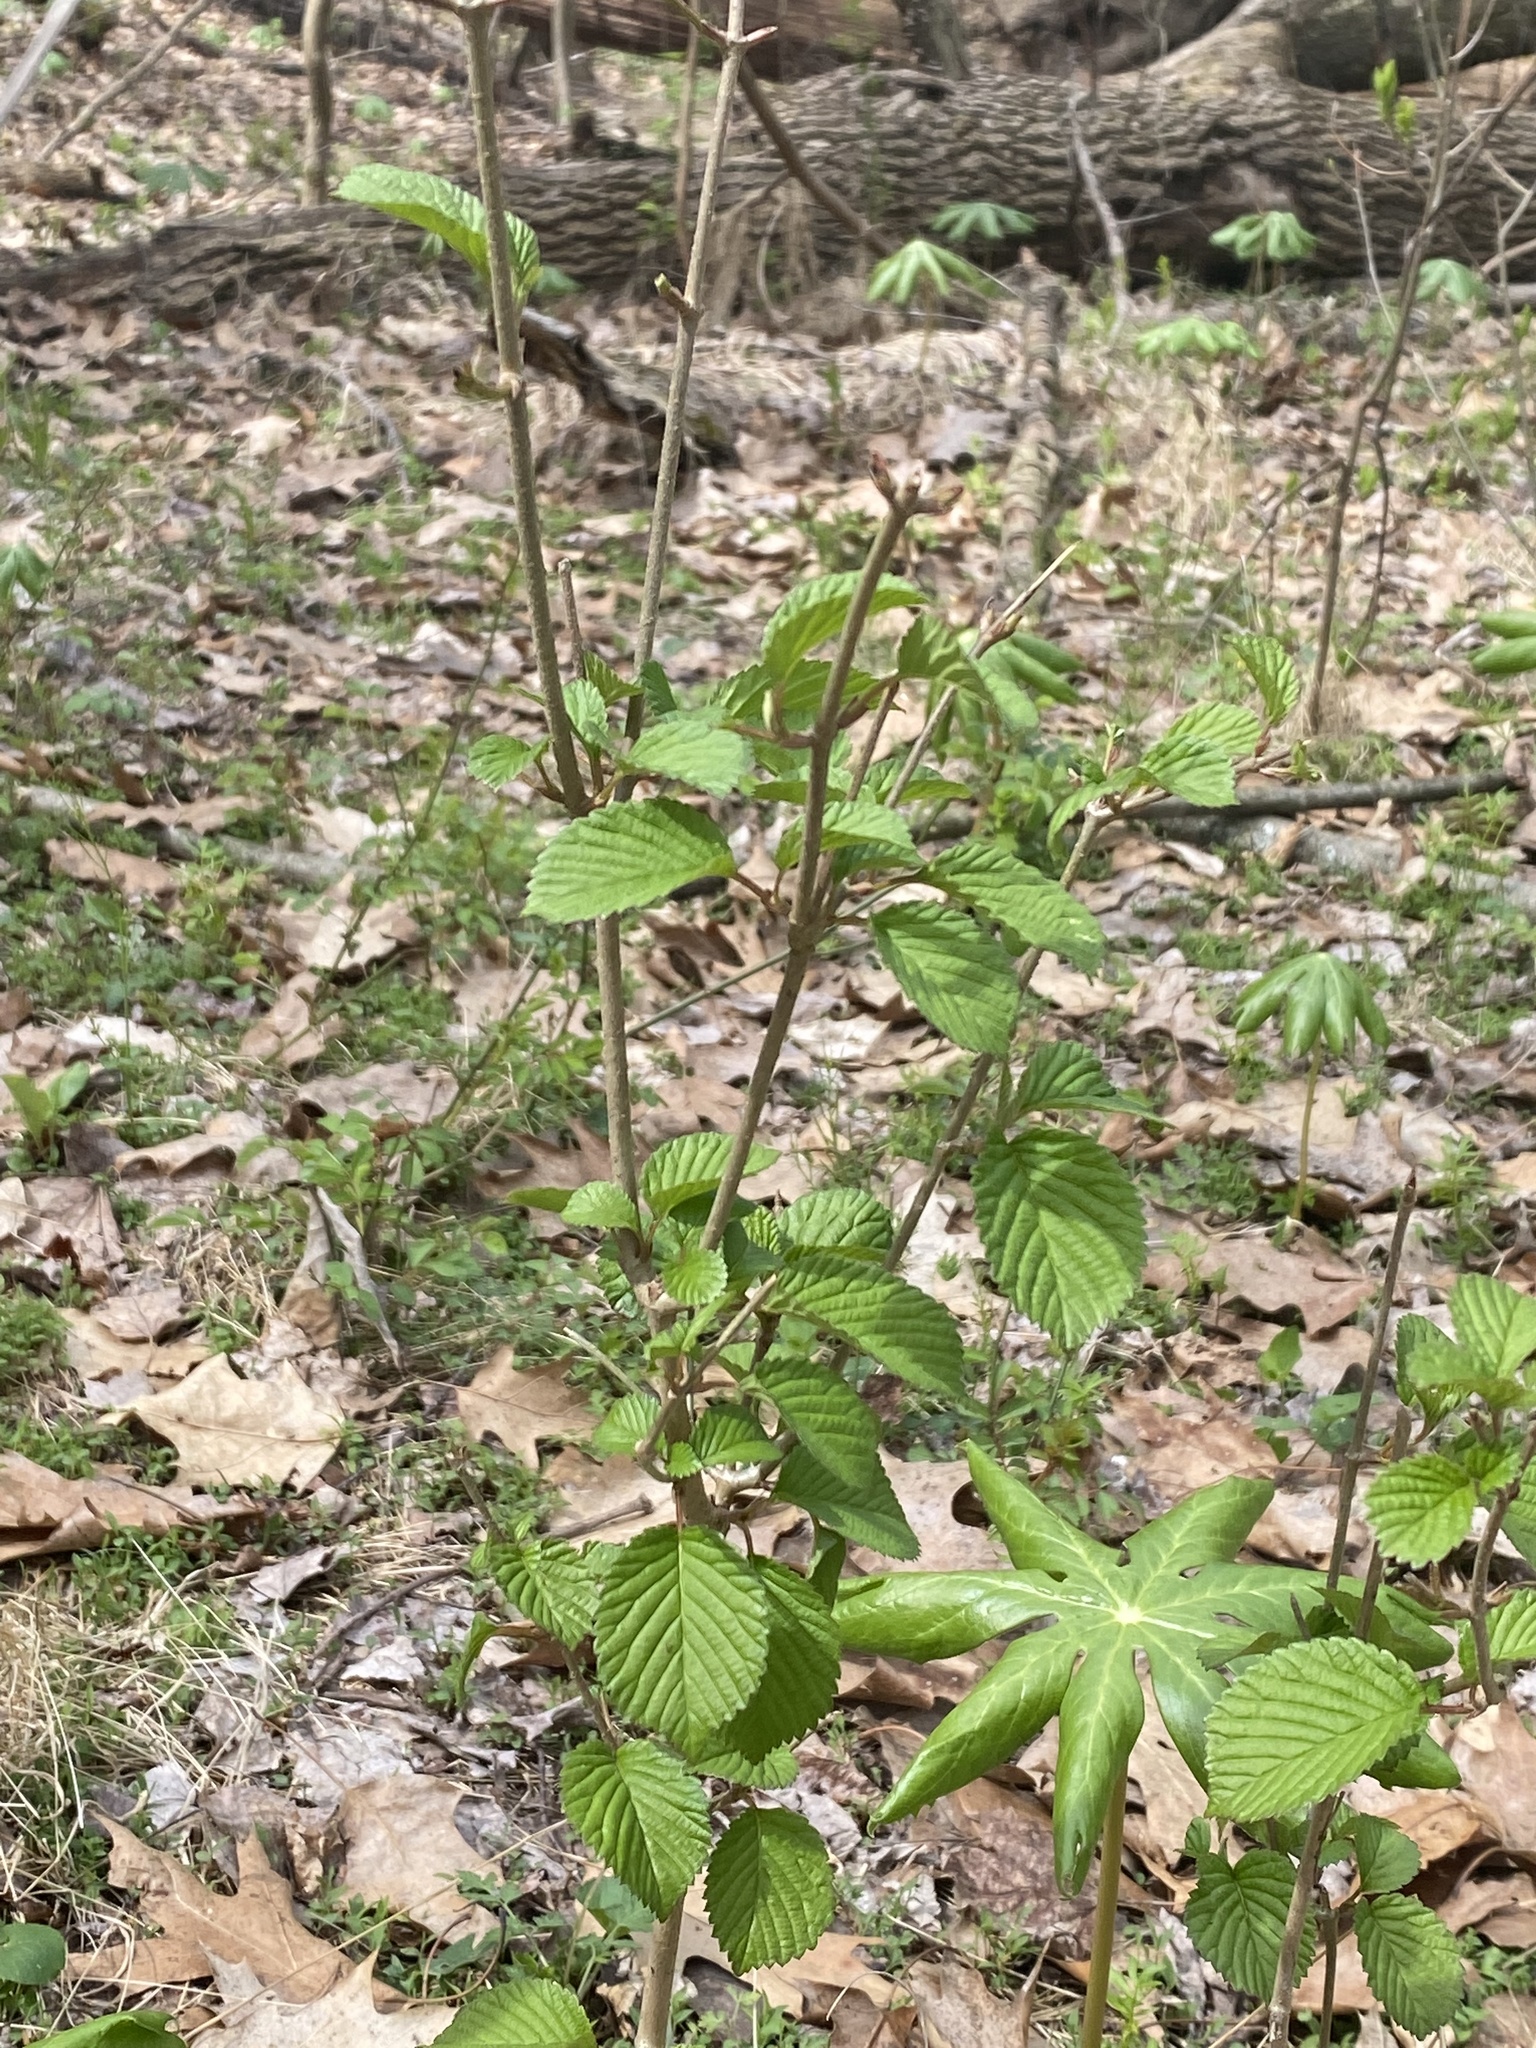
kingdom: Plantae
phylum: Tracheophyta
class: Magnoliopsida
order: Dipsacales
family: Viburnaceae
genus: Viburnum
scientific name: Viburnum plicatum
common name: Japanese snowball
